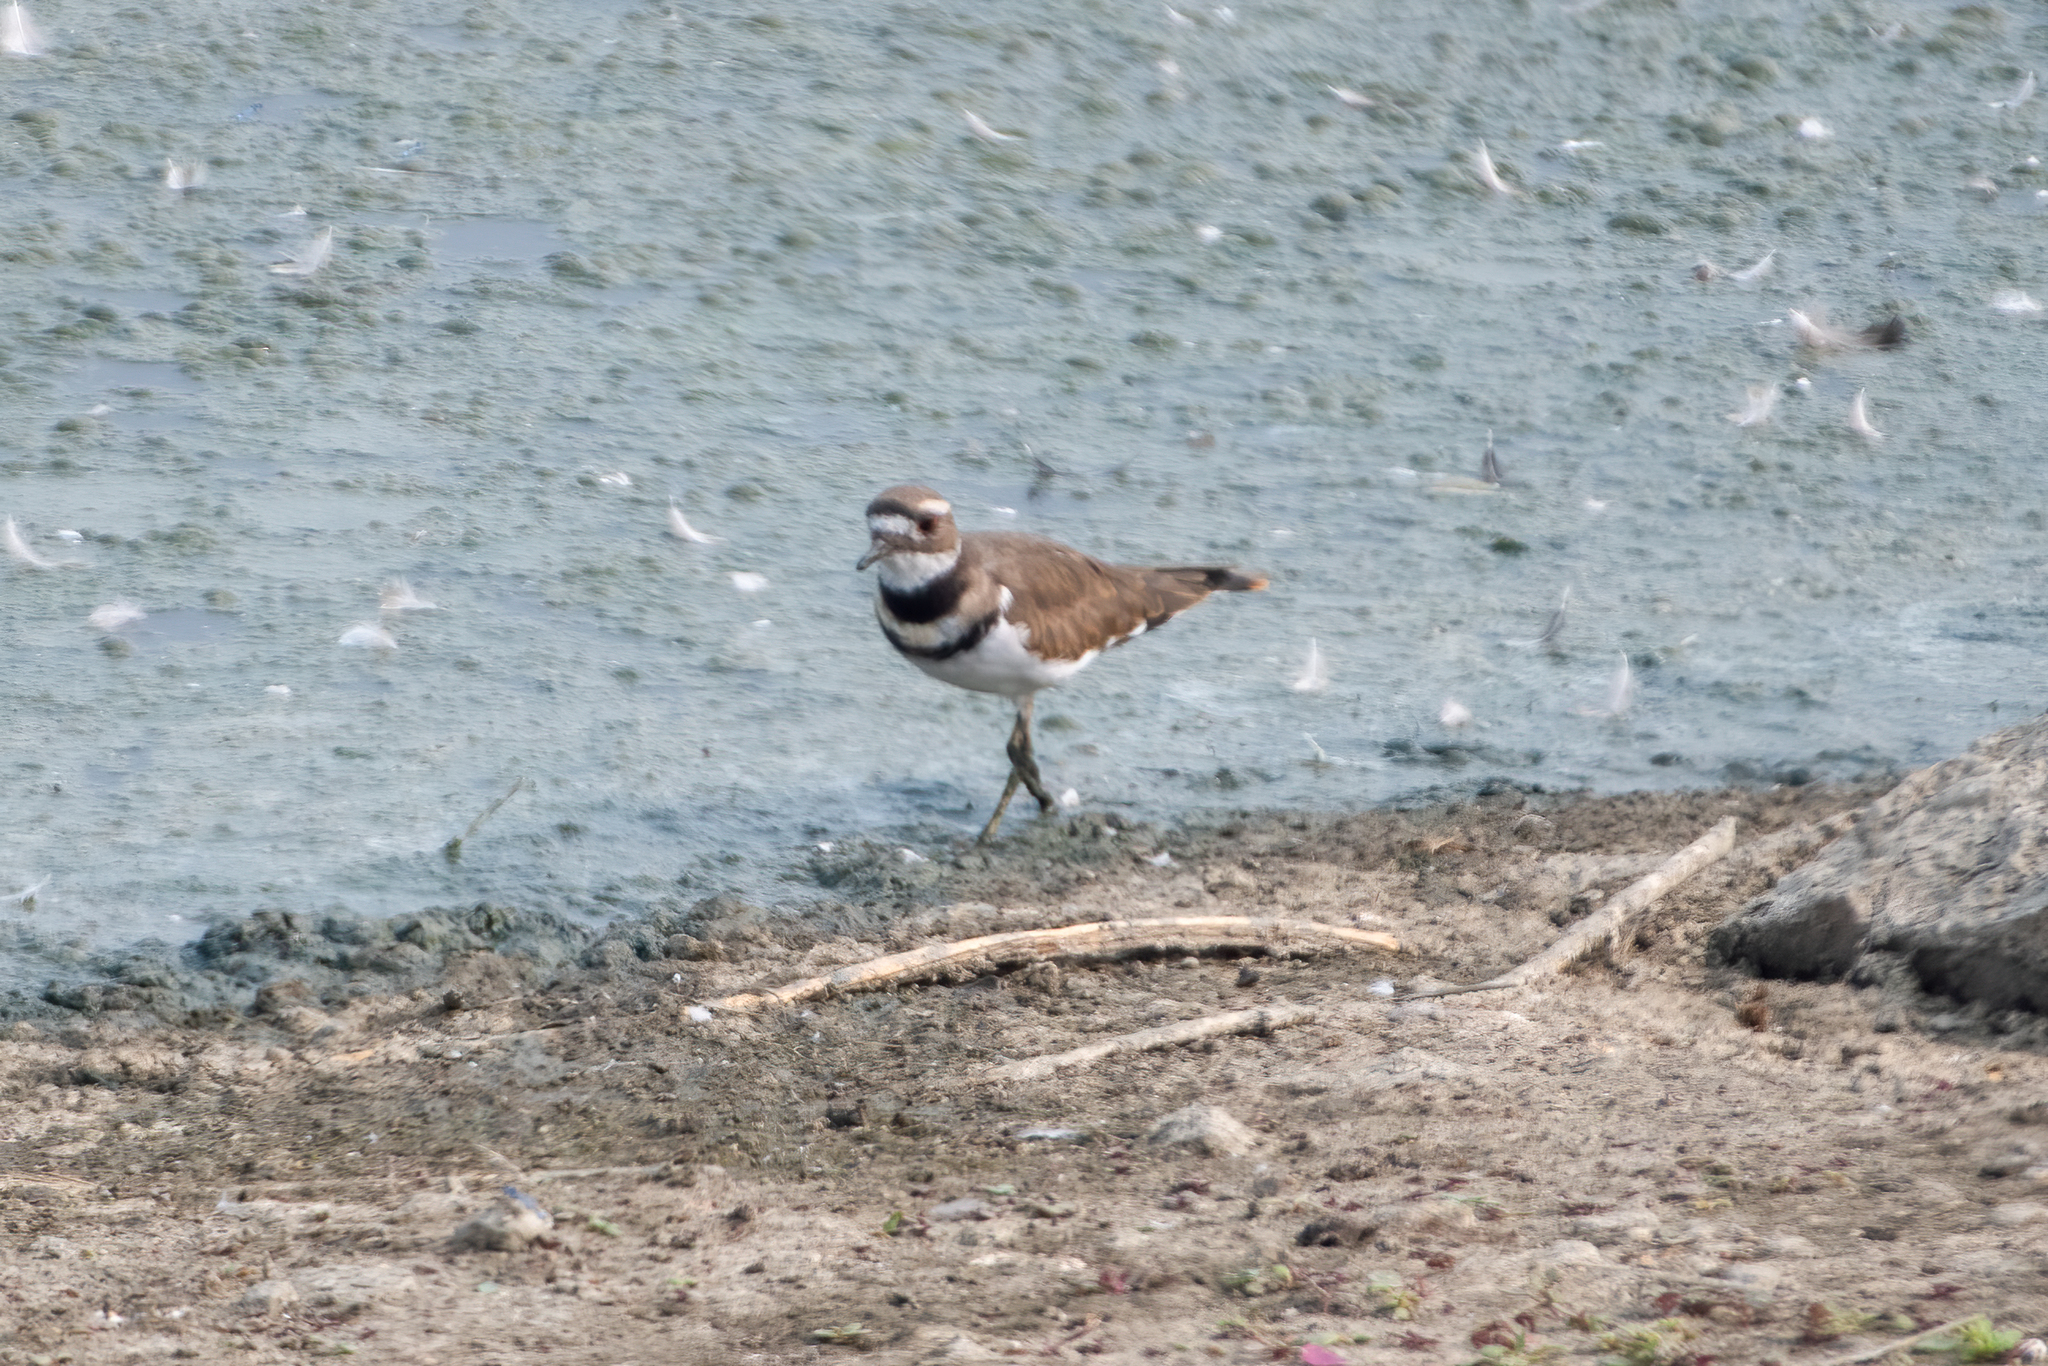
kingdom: Animalia
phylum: Chordata
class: Aves
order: Charadriiformes
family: Charadriidae
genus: Charadrius
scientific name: Charadrius vociferus
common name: Killdeer
